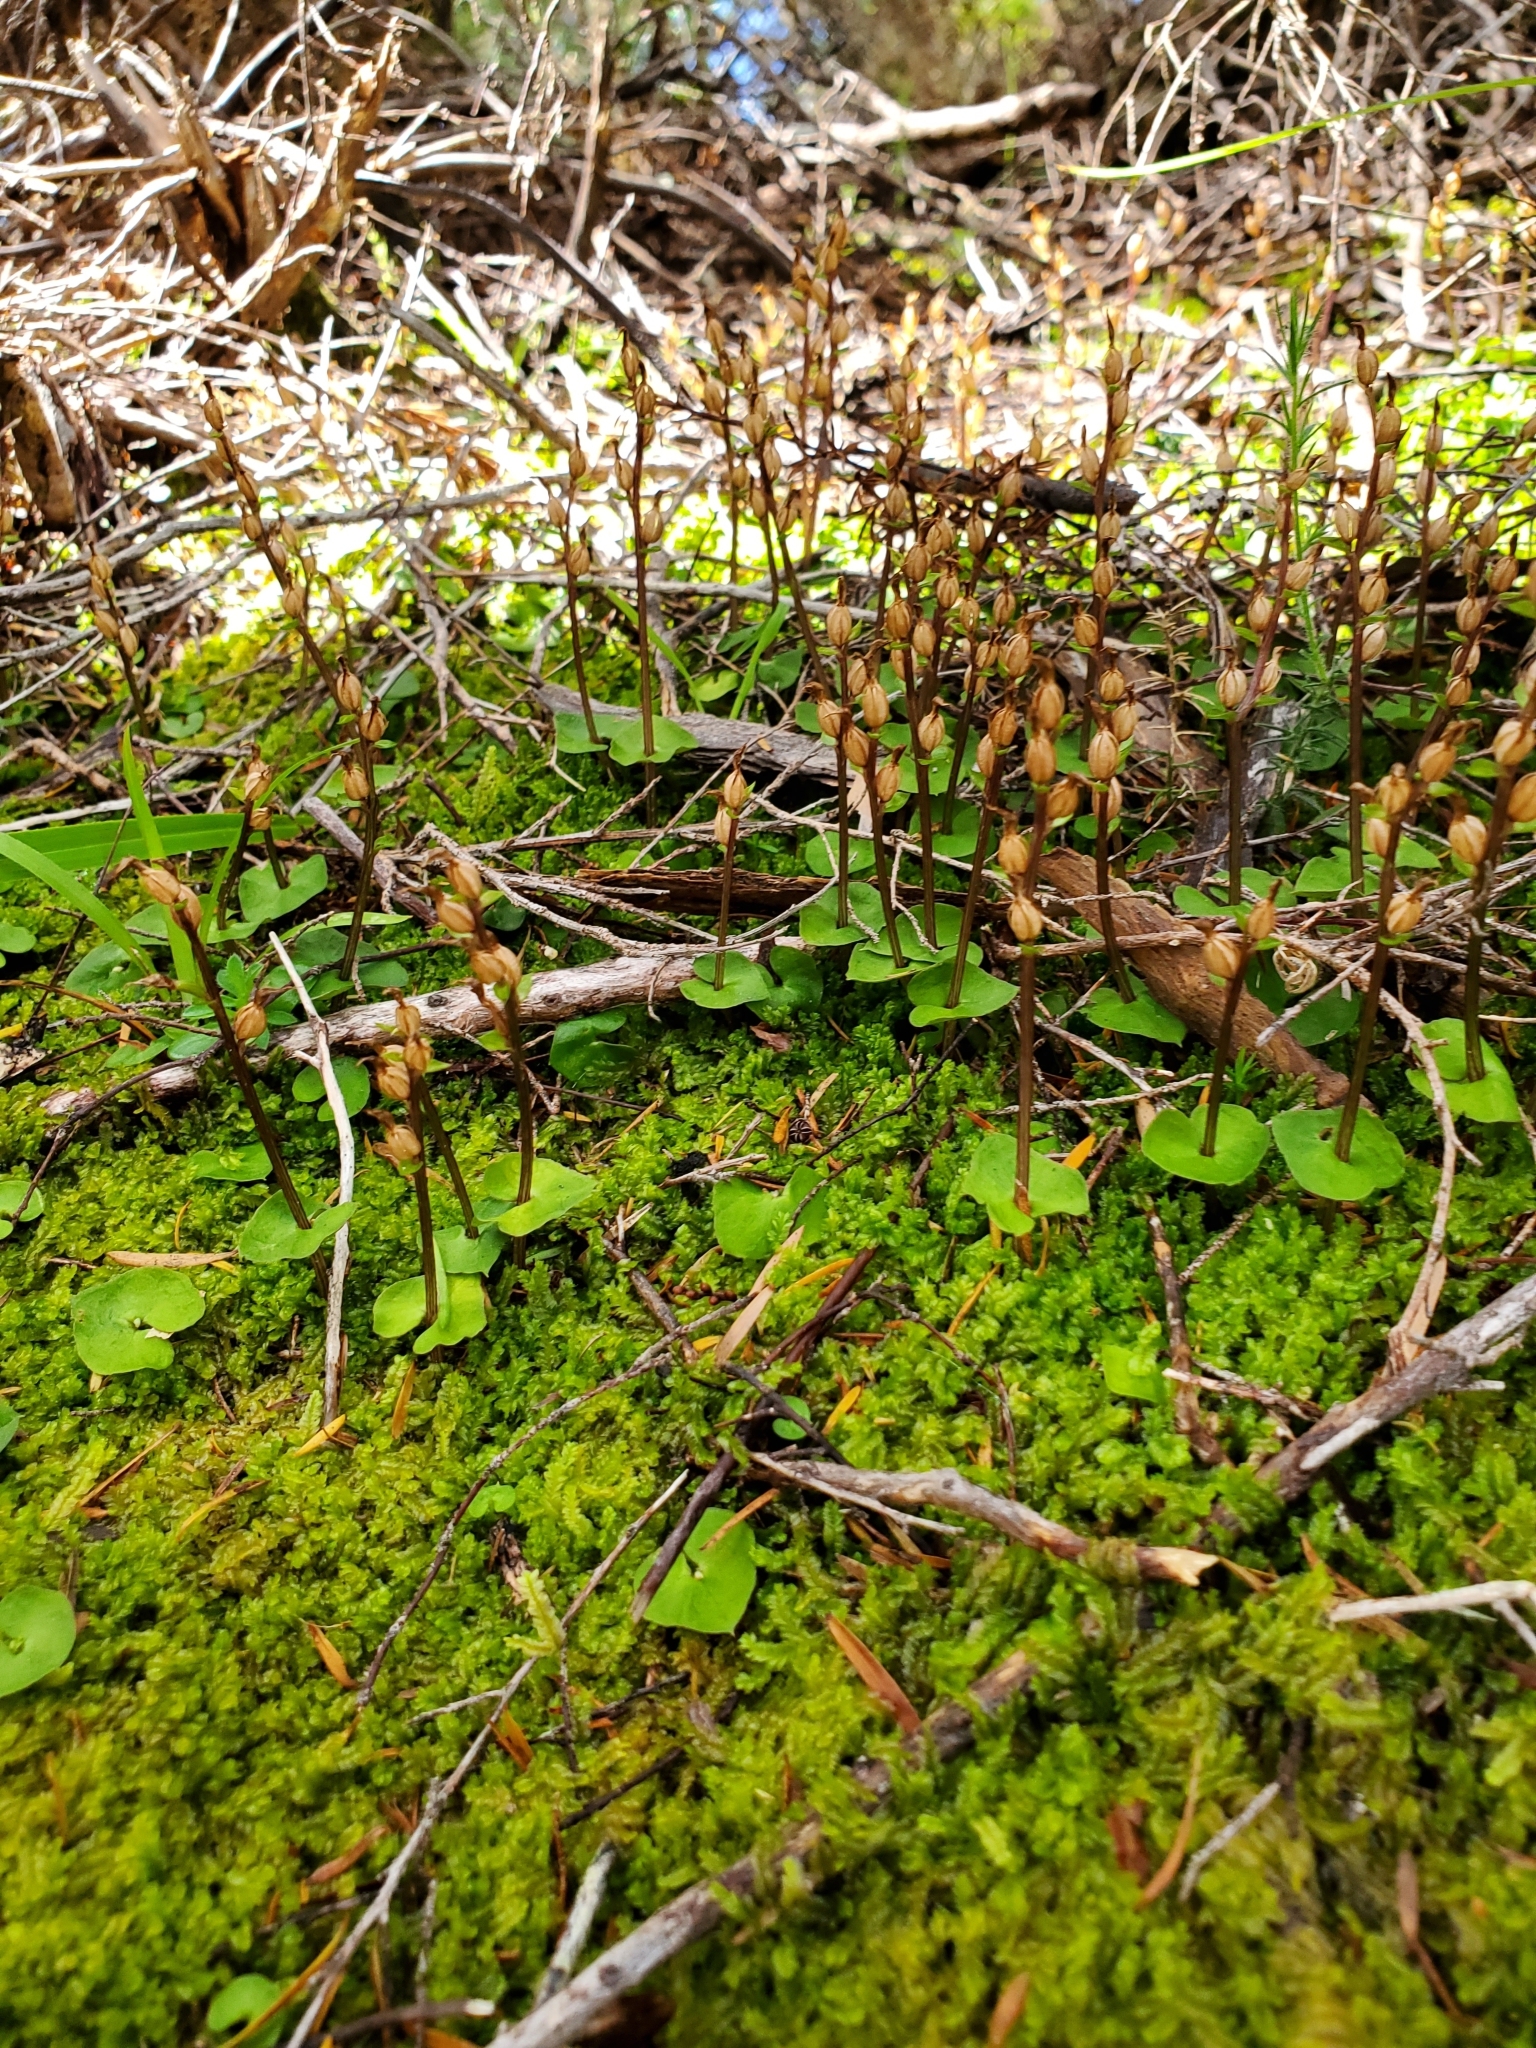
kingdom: Plantae
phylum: Tracheophyta
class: Liliopsida
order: Asparagales
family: Orchidaceae
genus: Acianthus
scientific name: Acianthus sinclairii
